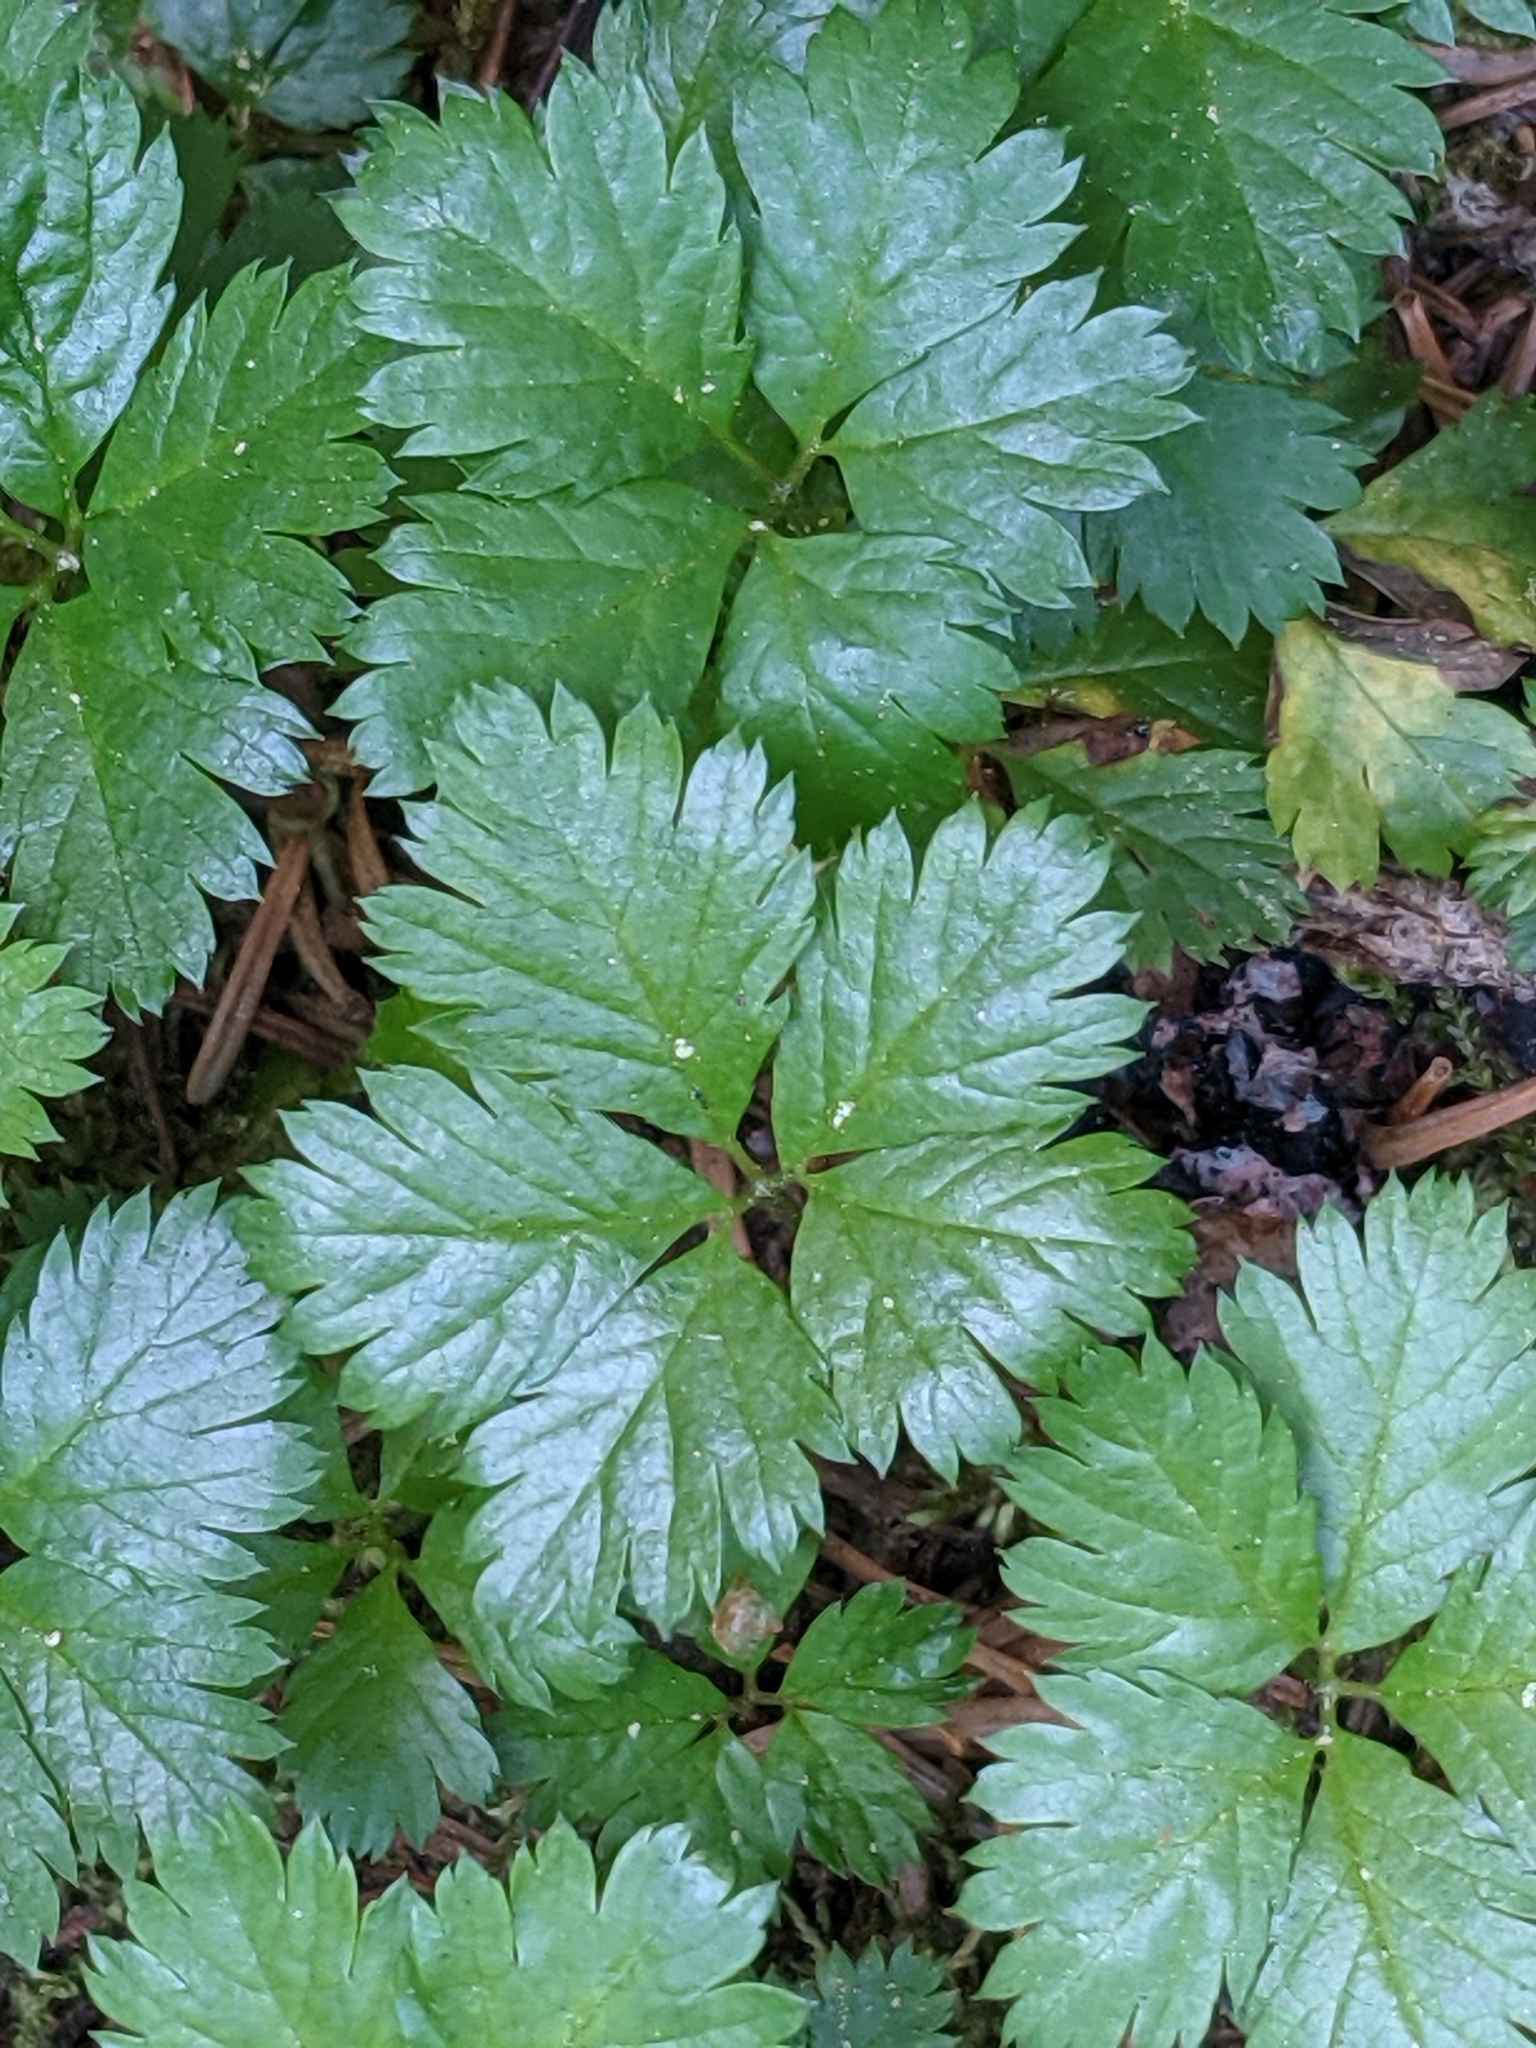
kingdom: Plantae
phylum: Tracheophyta
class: Magnoliopsida
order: Rosales
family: Rosaceae
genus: Rubus
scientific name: Rubus pedatus
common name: Creeping raspberry
